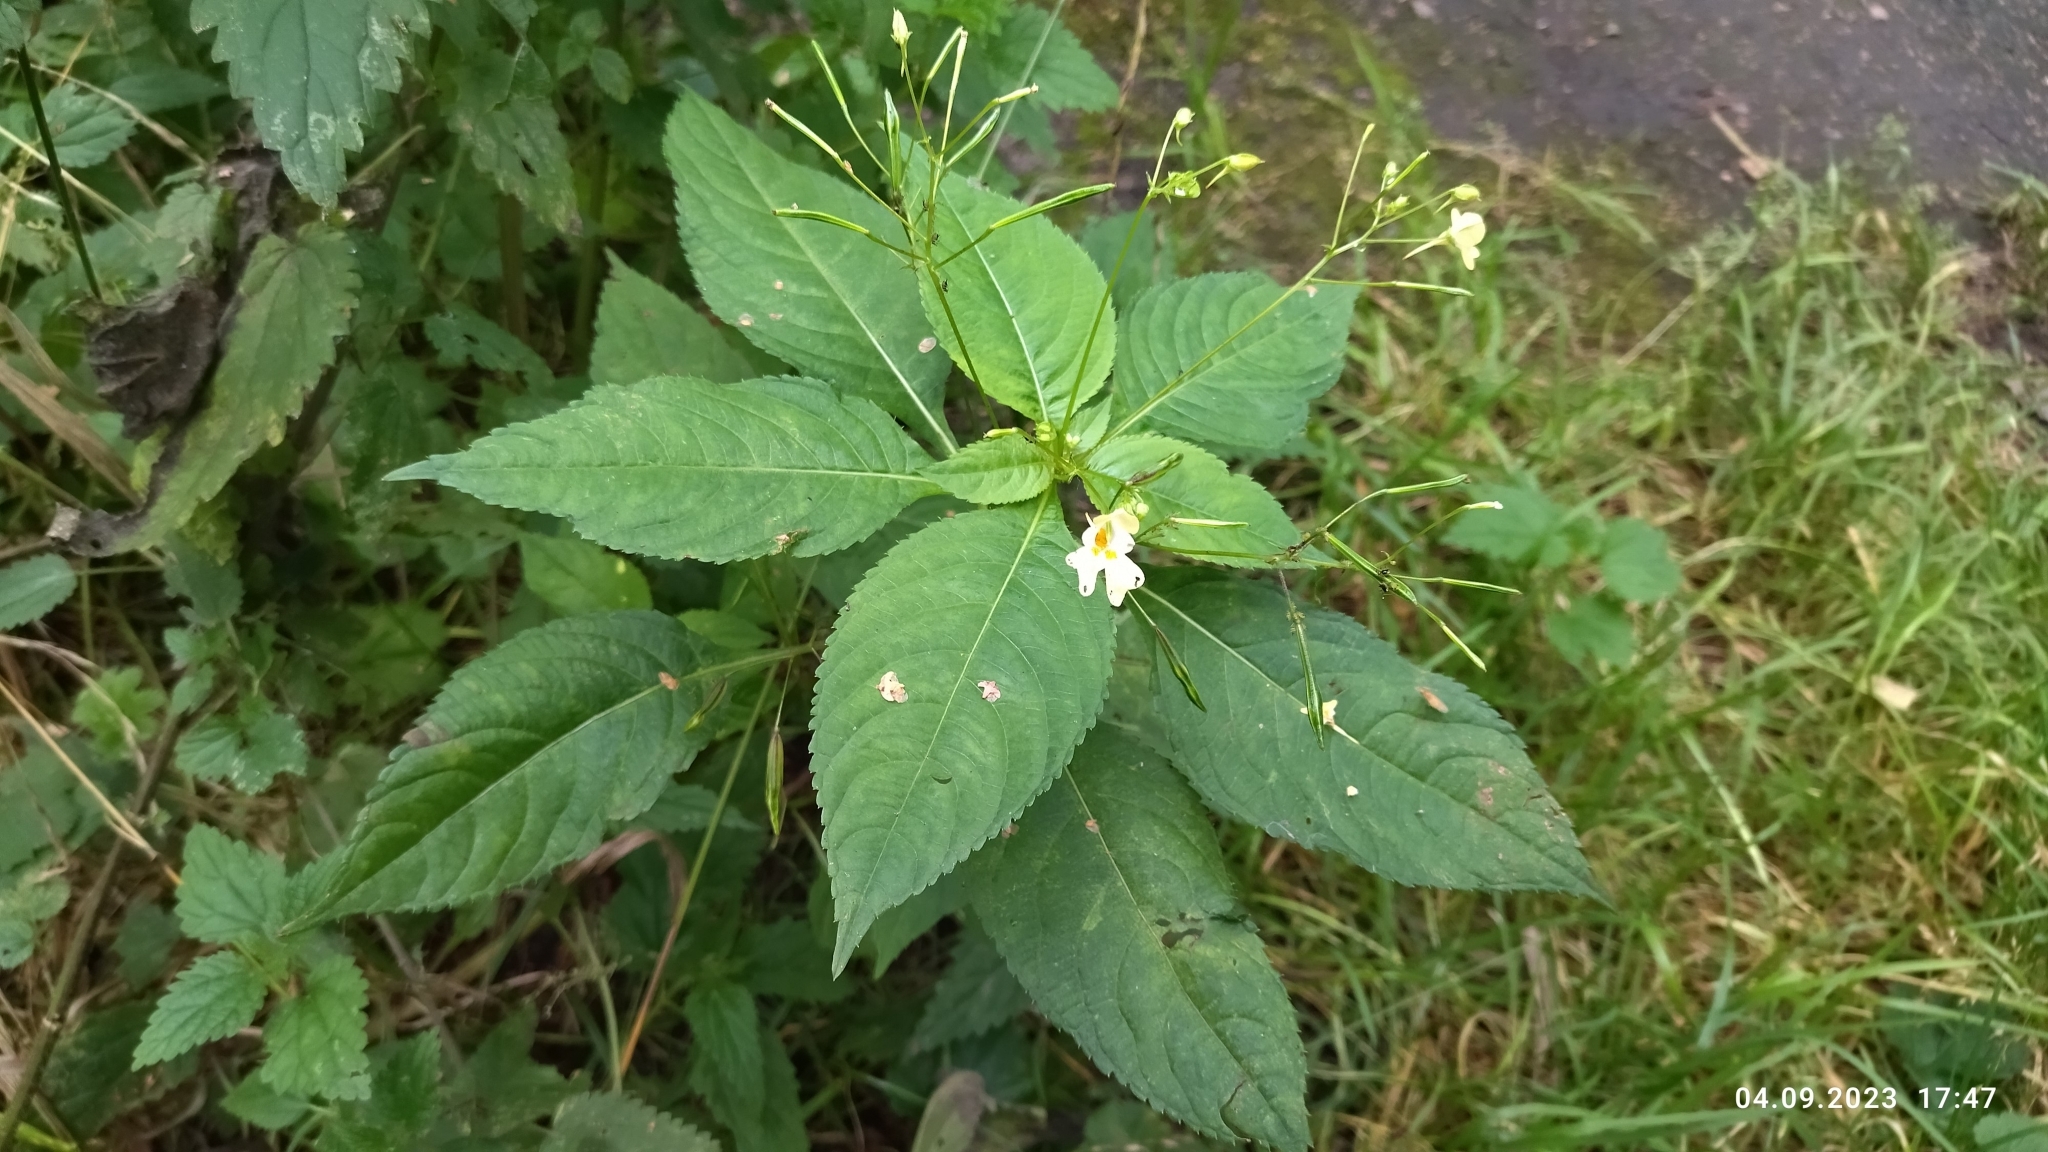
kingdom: Plantae
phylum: Tracheophyta
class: Magnoliopsida
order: Ericales
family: Balsaminaceae
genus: Impatiens
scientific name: Impatiens parviflora
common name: Small balsam
